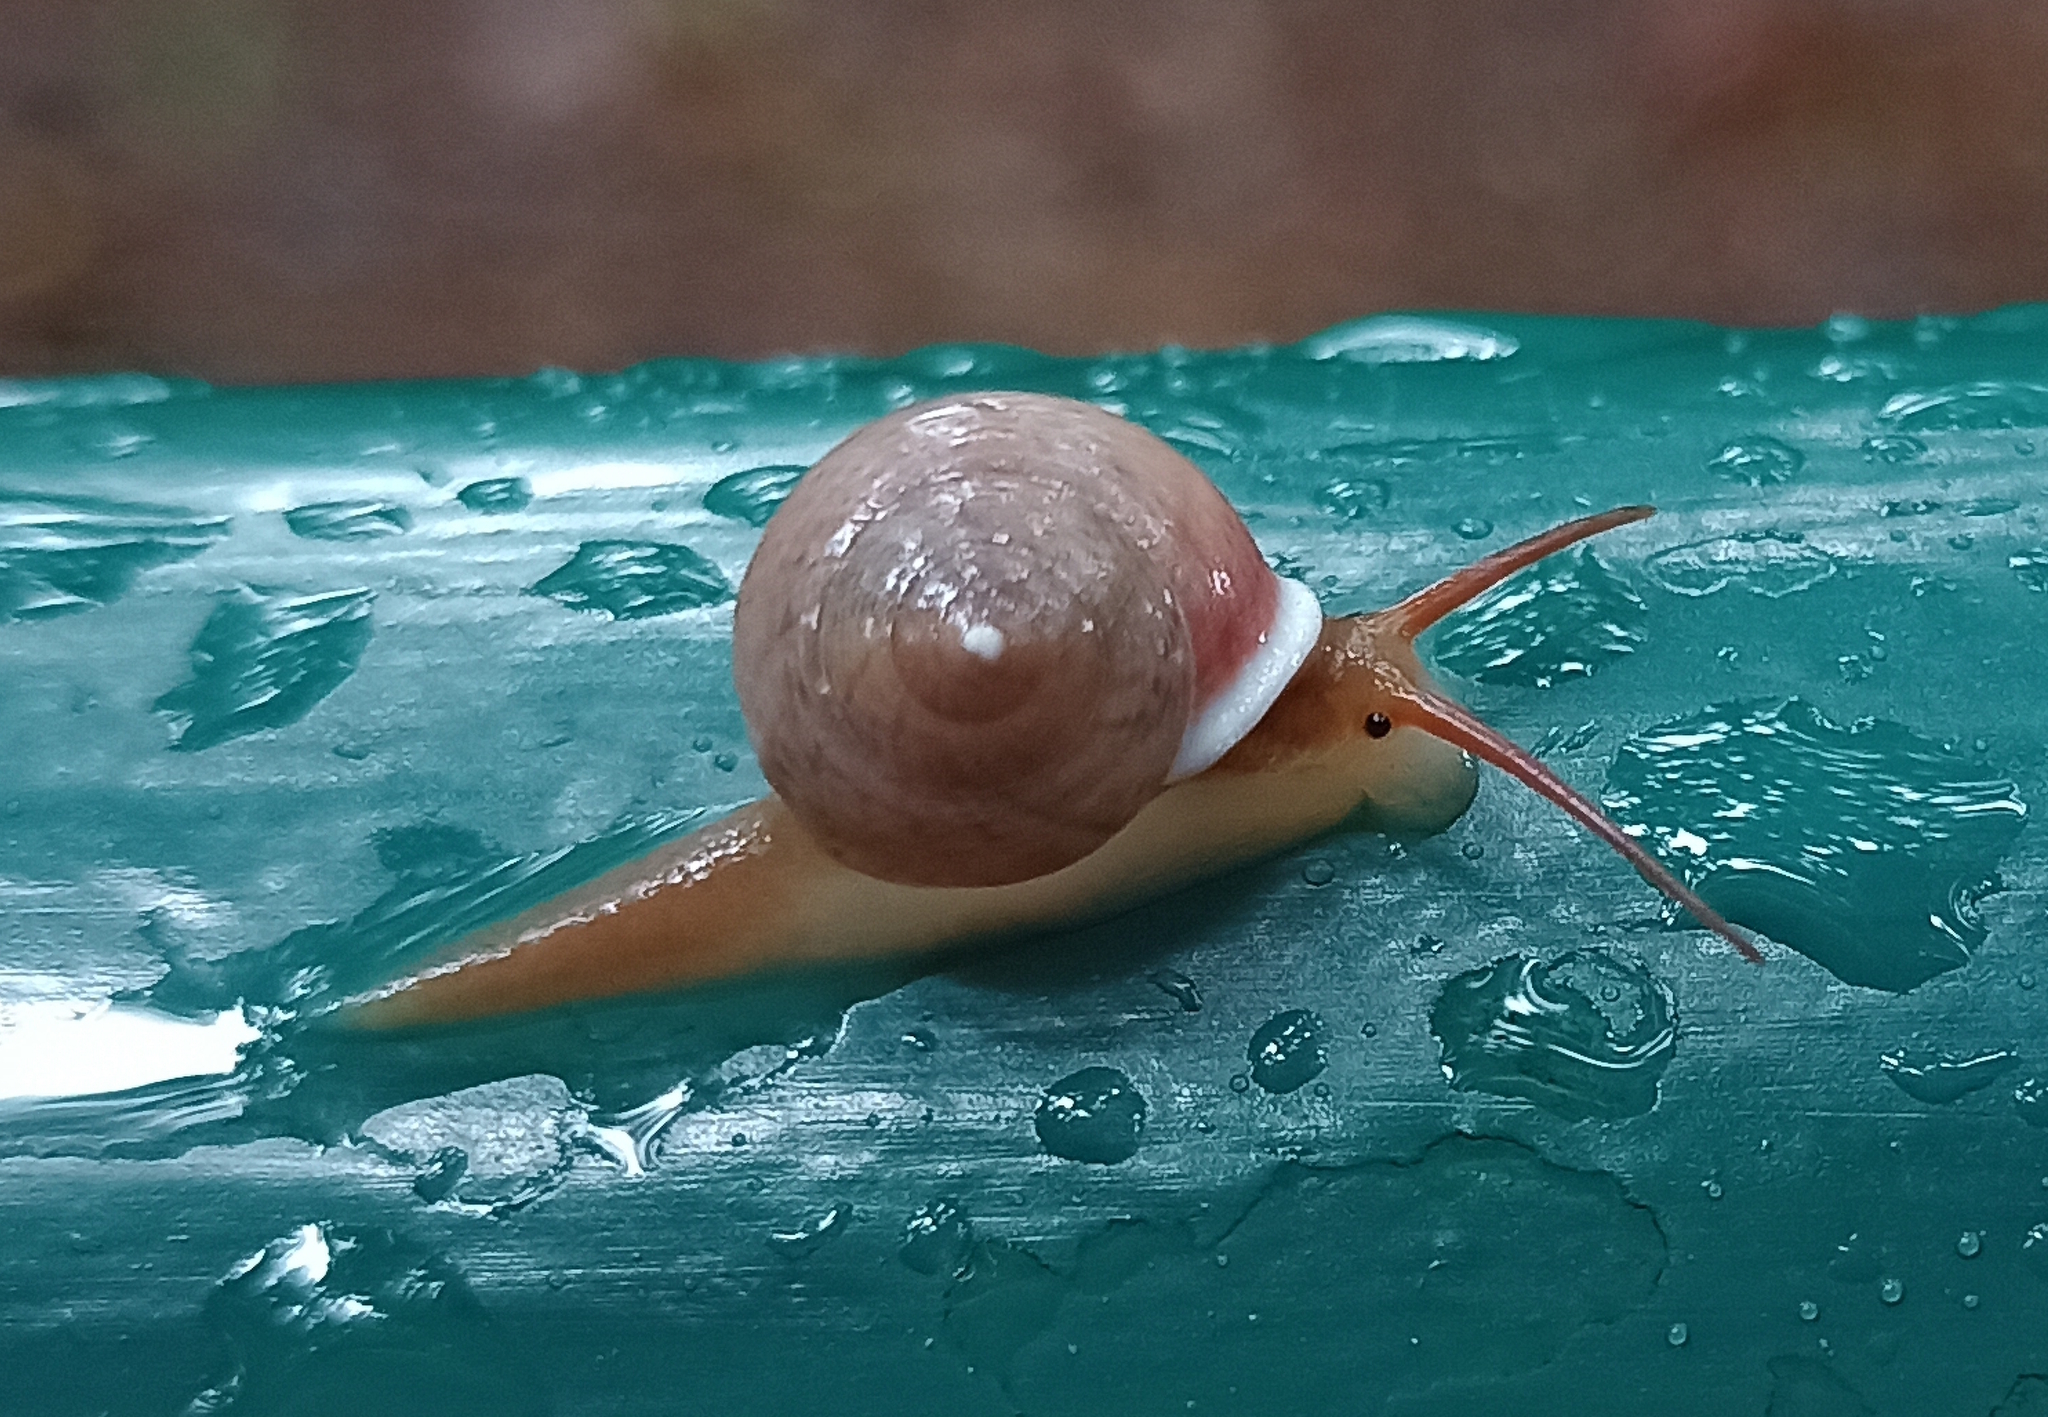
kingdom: Animalia
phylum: Mollusca
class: Gastropoda
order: Cycloneritida
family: Helicinidae
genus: Helicina
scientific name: Helicina boettgeri
